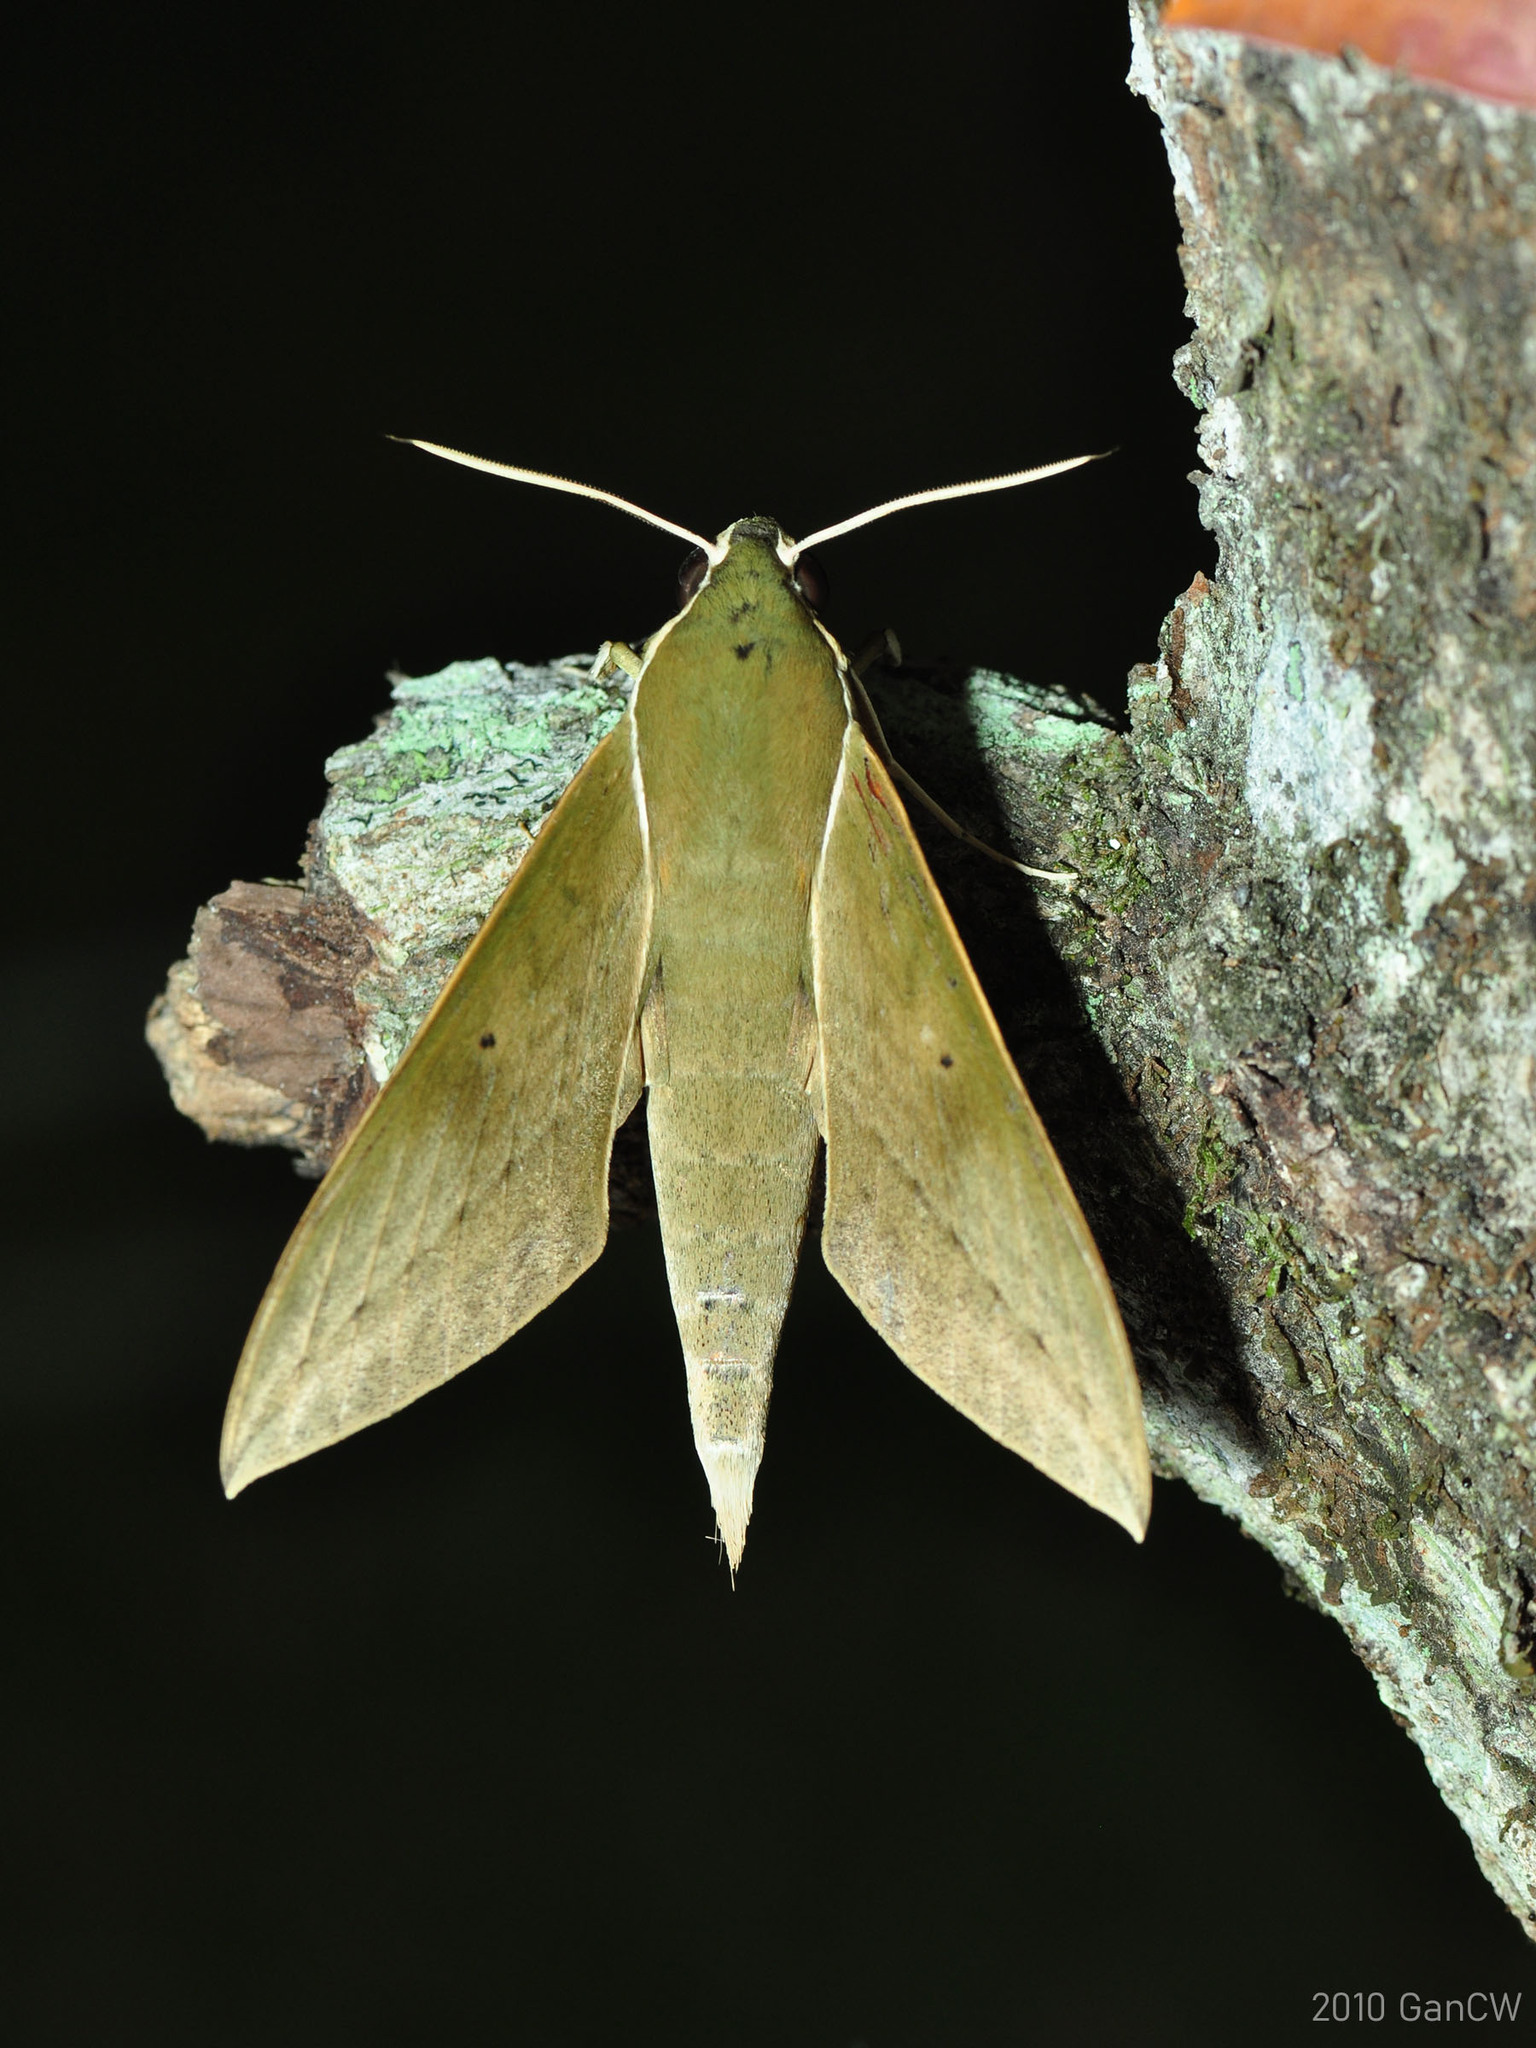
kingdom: Animalia
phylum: Arthropoda
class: Insecta
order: Lepidoptera
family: Sphingidae
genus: Theretra
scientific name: Theretra clotho
